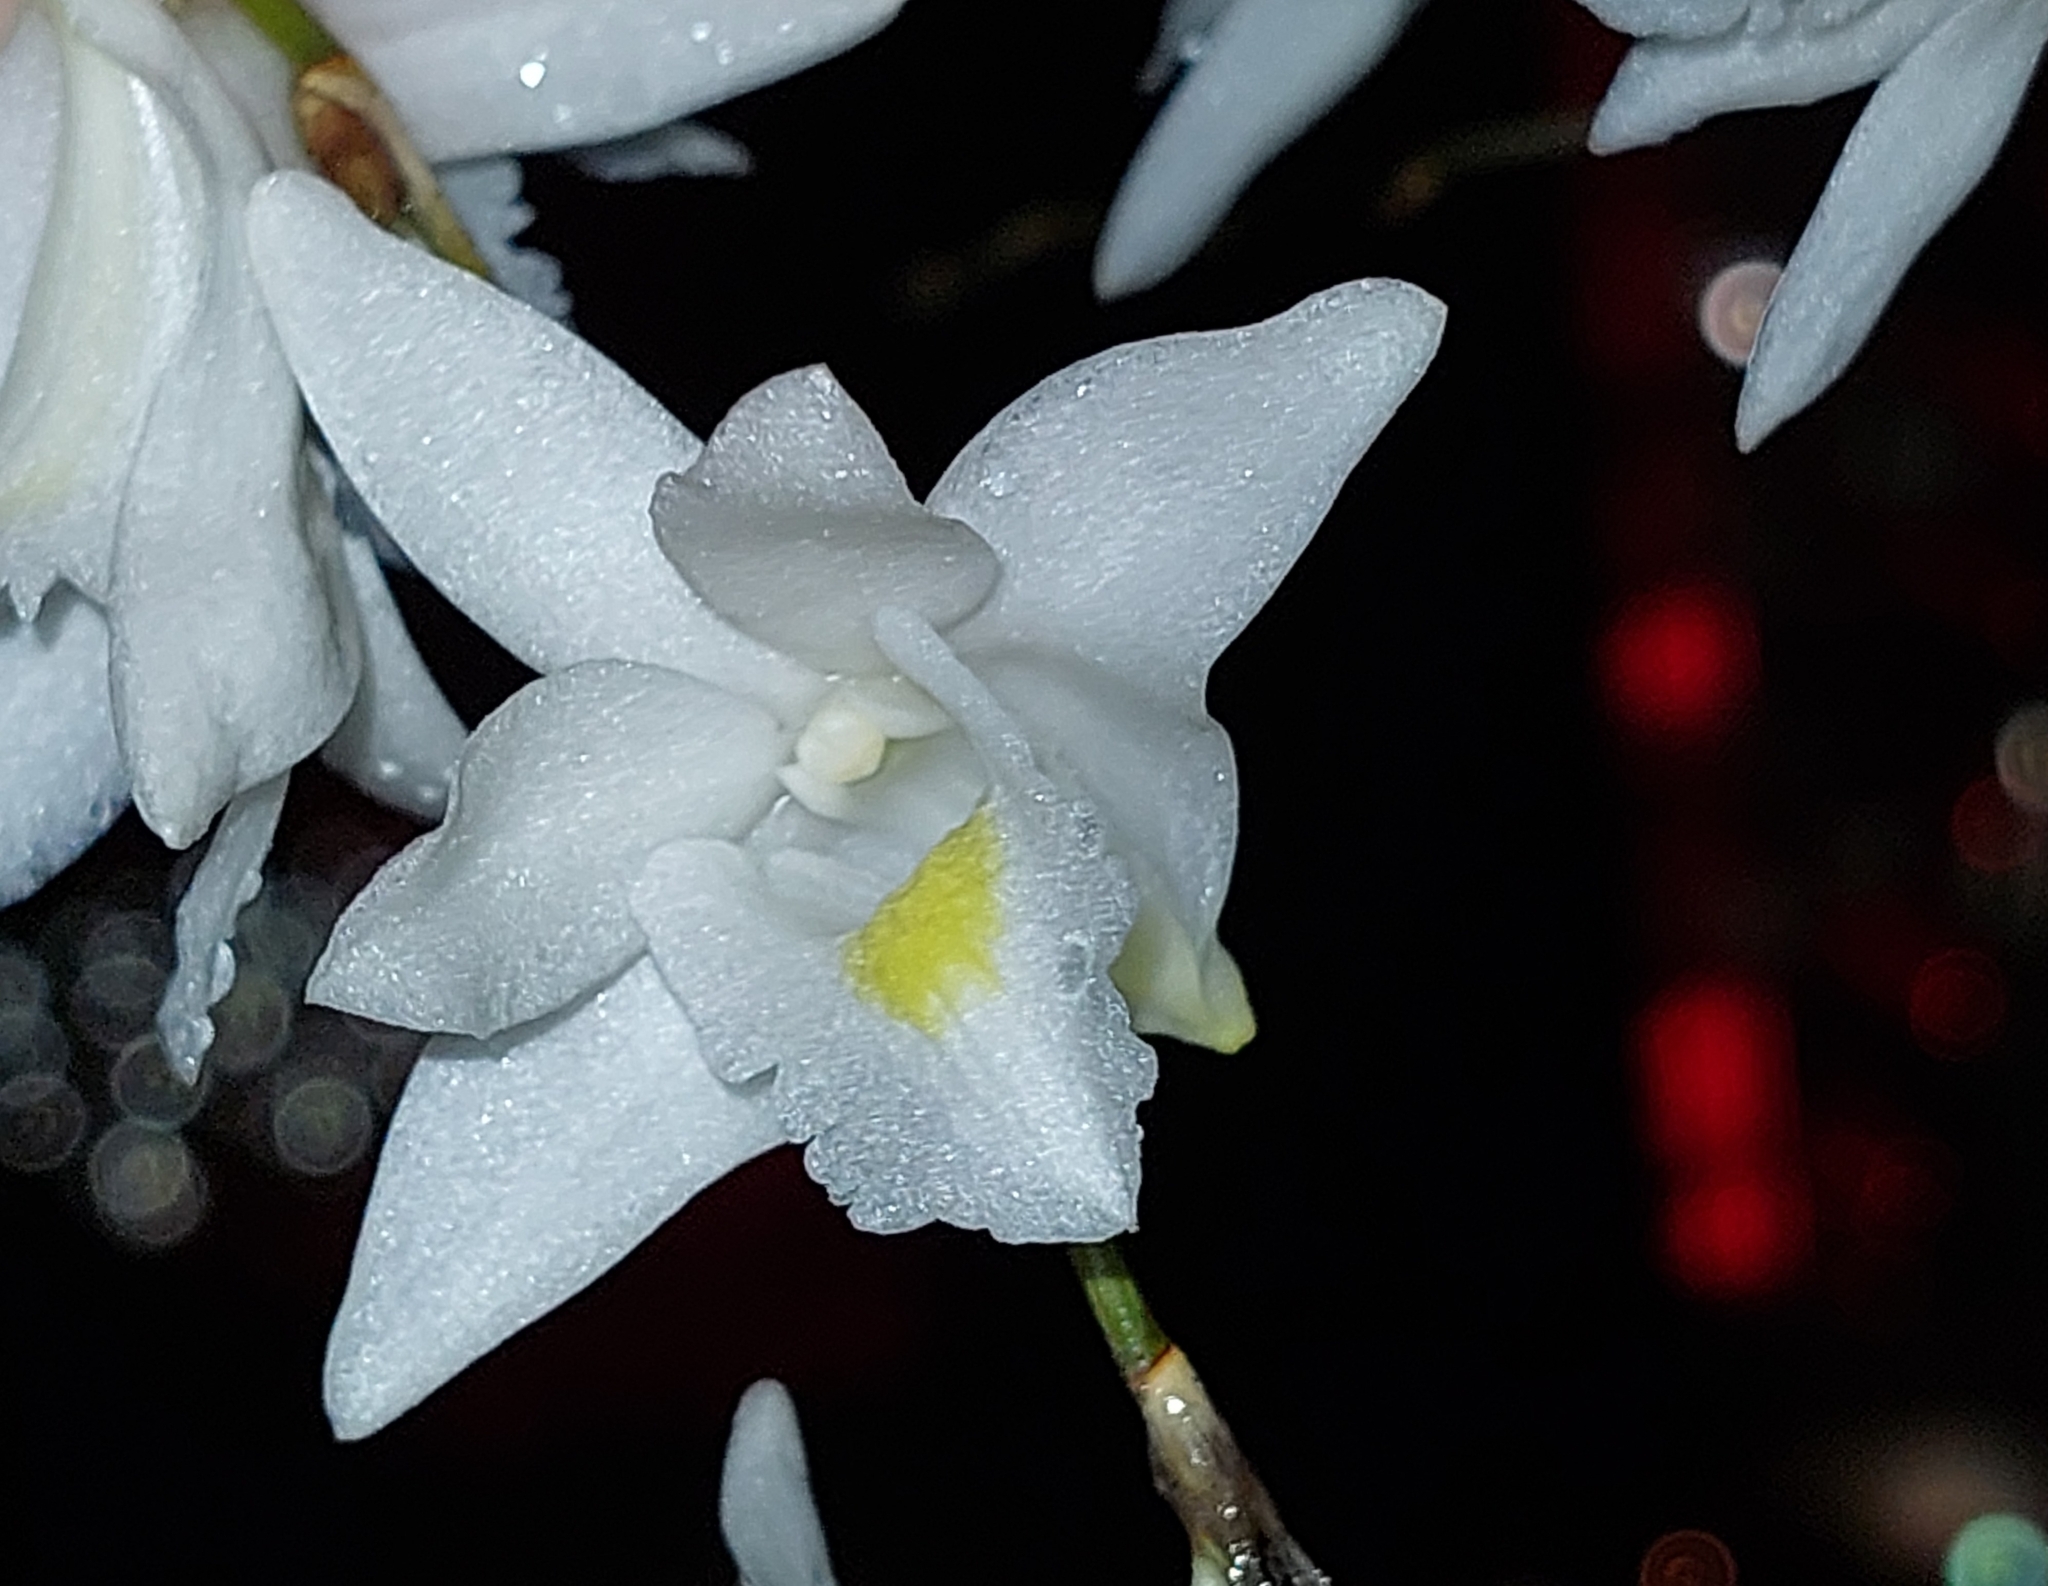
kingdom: Plantae
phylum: Tracheophyta
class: Liliopsida
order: Asparagales
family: Orchidaceae
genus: Dendrobium
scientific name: Dendrobium crumenatum
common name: Orchid
